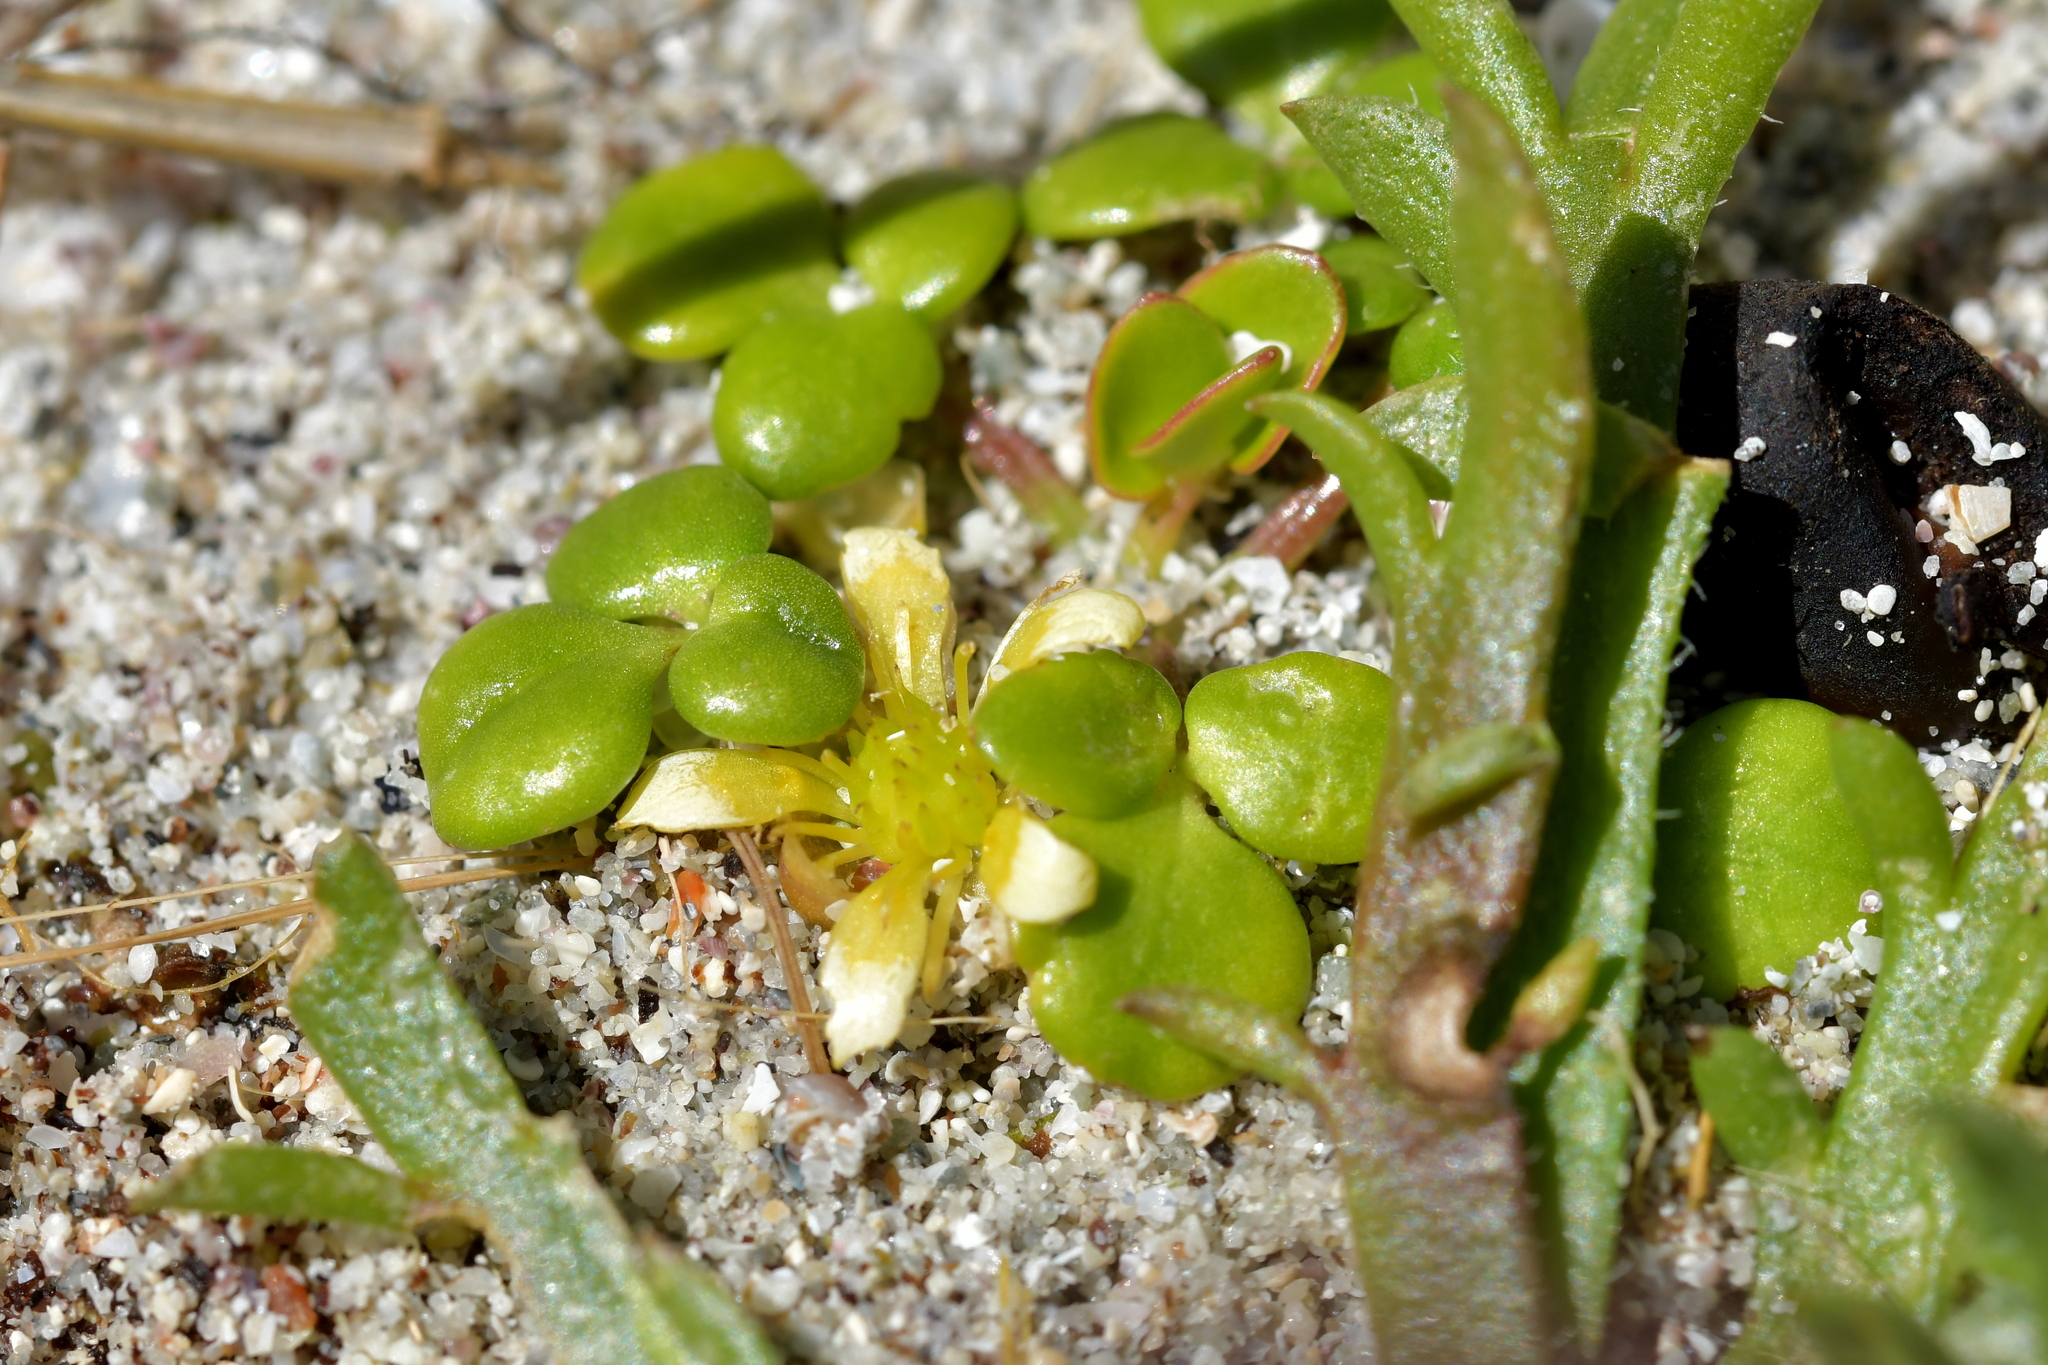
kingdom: Plantae
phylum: Tracheophyta
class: Magnoliopsida
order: Ranunculales
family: Ranunculaceae
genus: Ranunculus
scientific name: Ranunculus acaulis
